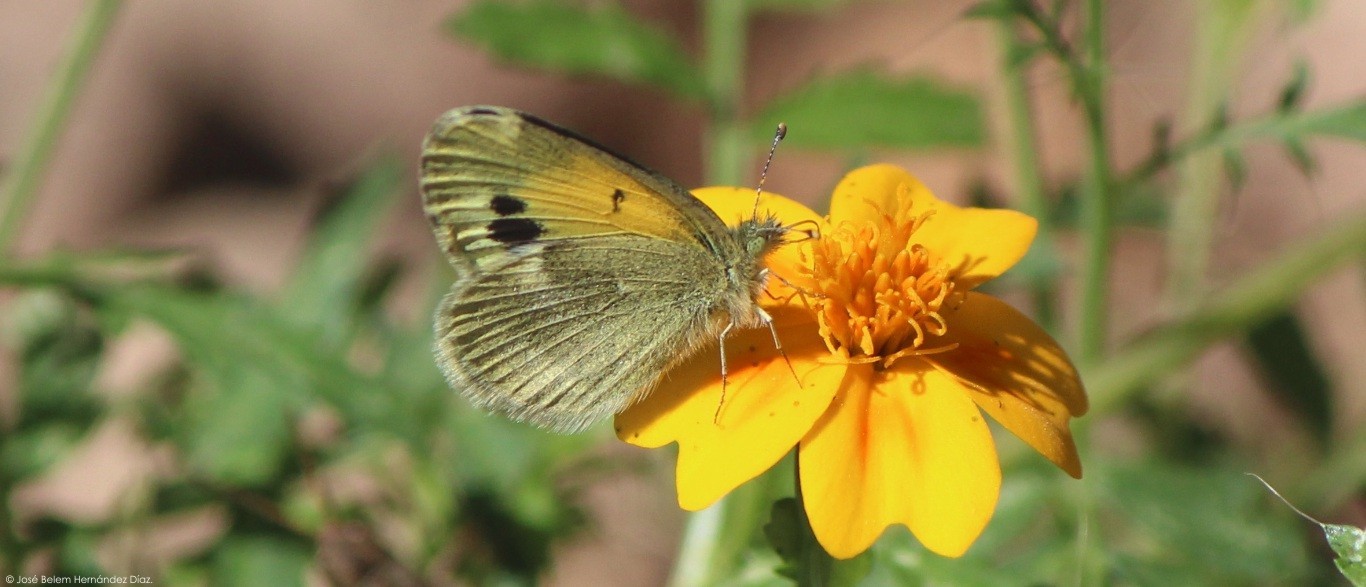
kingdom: Animalia
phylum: Arthropoda
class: Insecta
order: Lepidoptera
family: Pieridae
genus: Nathalis
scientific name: Nathalis iole
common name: Dainty sulphur
